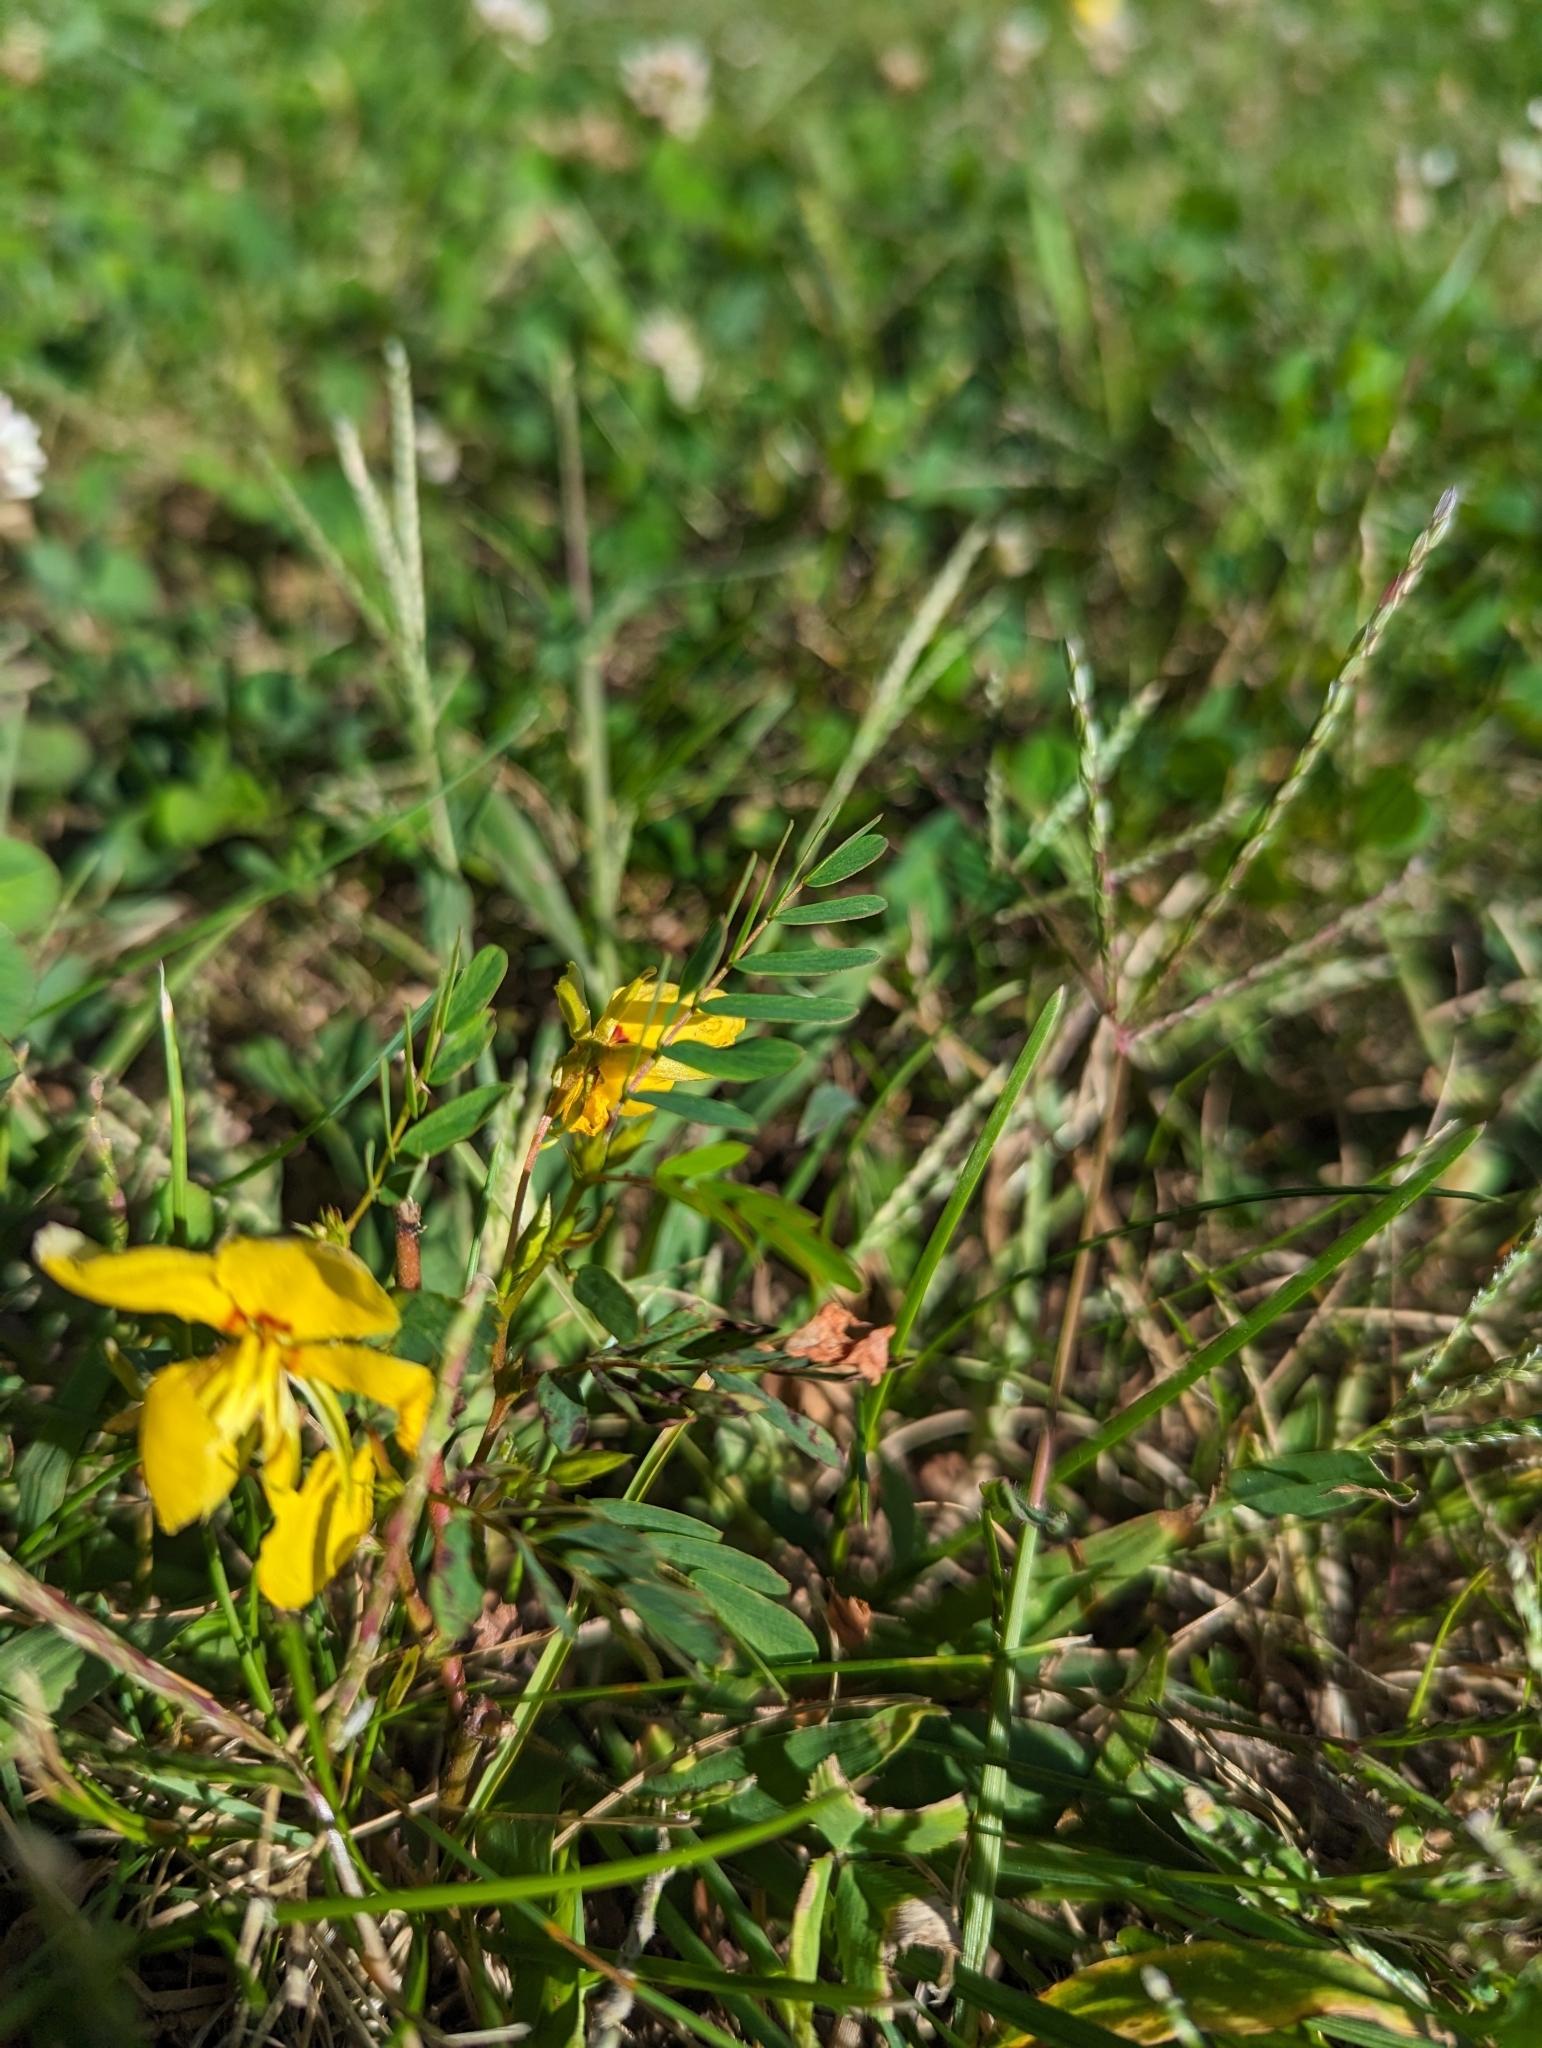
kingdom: Plantae
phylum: Tracheophyta
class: Magnoliopsida
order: Fabales
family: Fabaceae
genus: Chamaecrista
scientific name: Chamaecrista fasciculata
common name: Golden cassia
